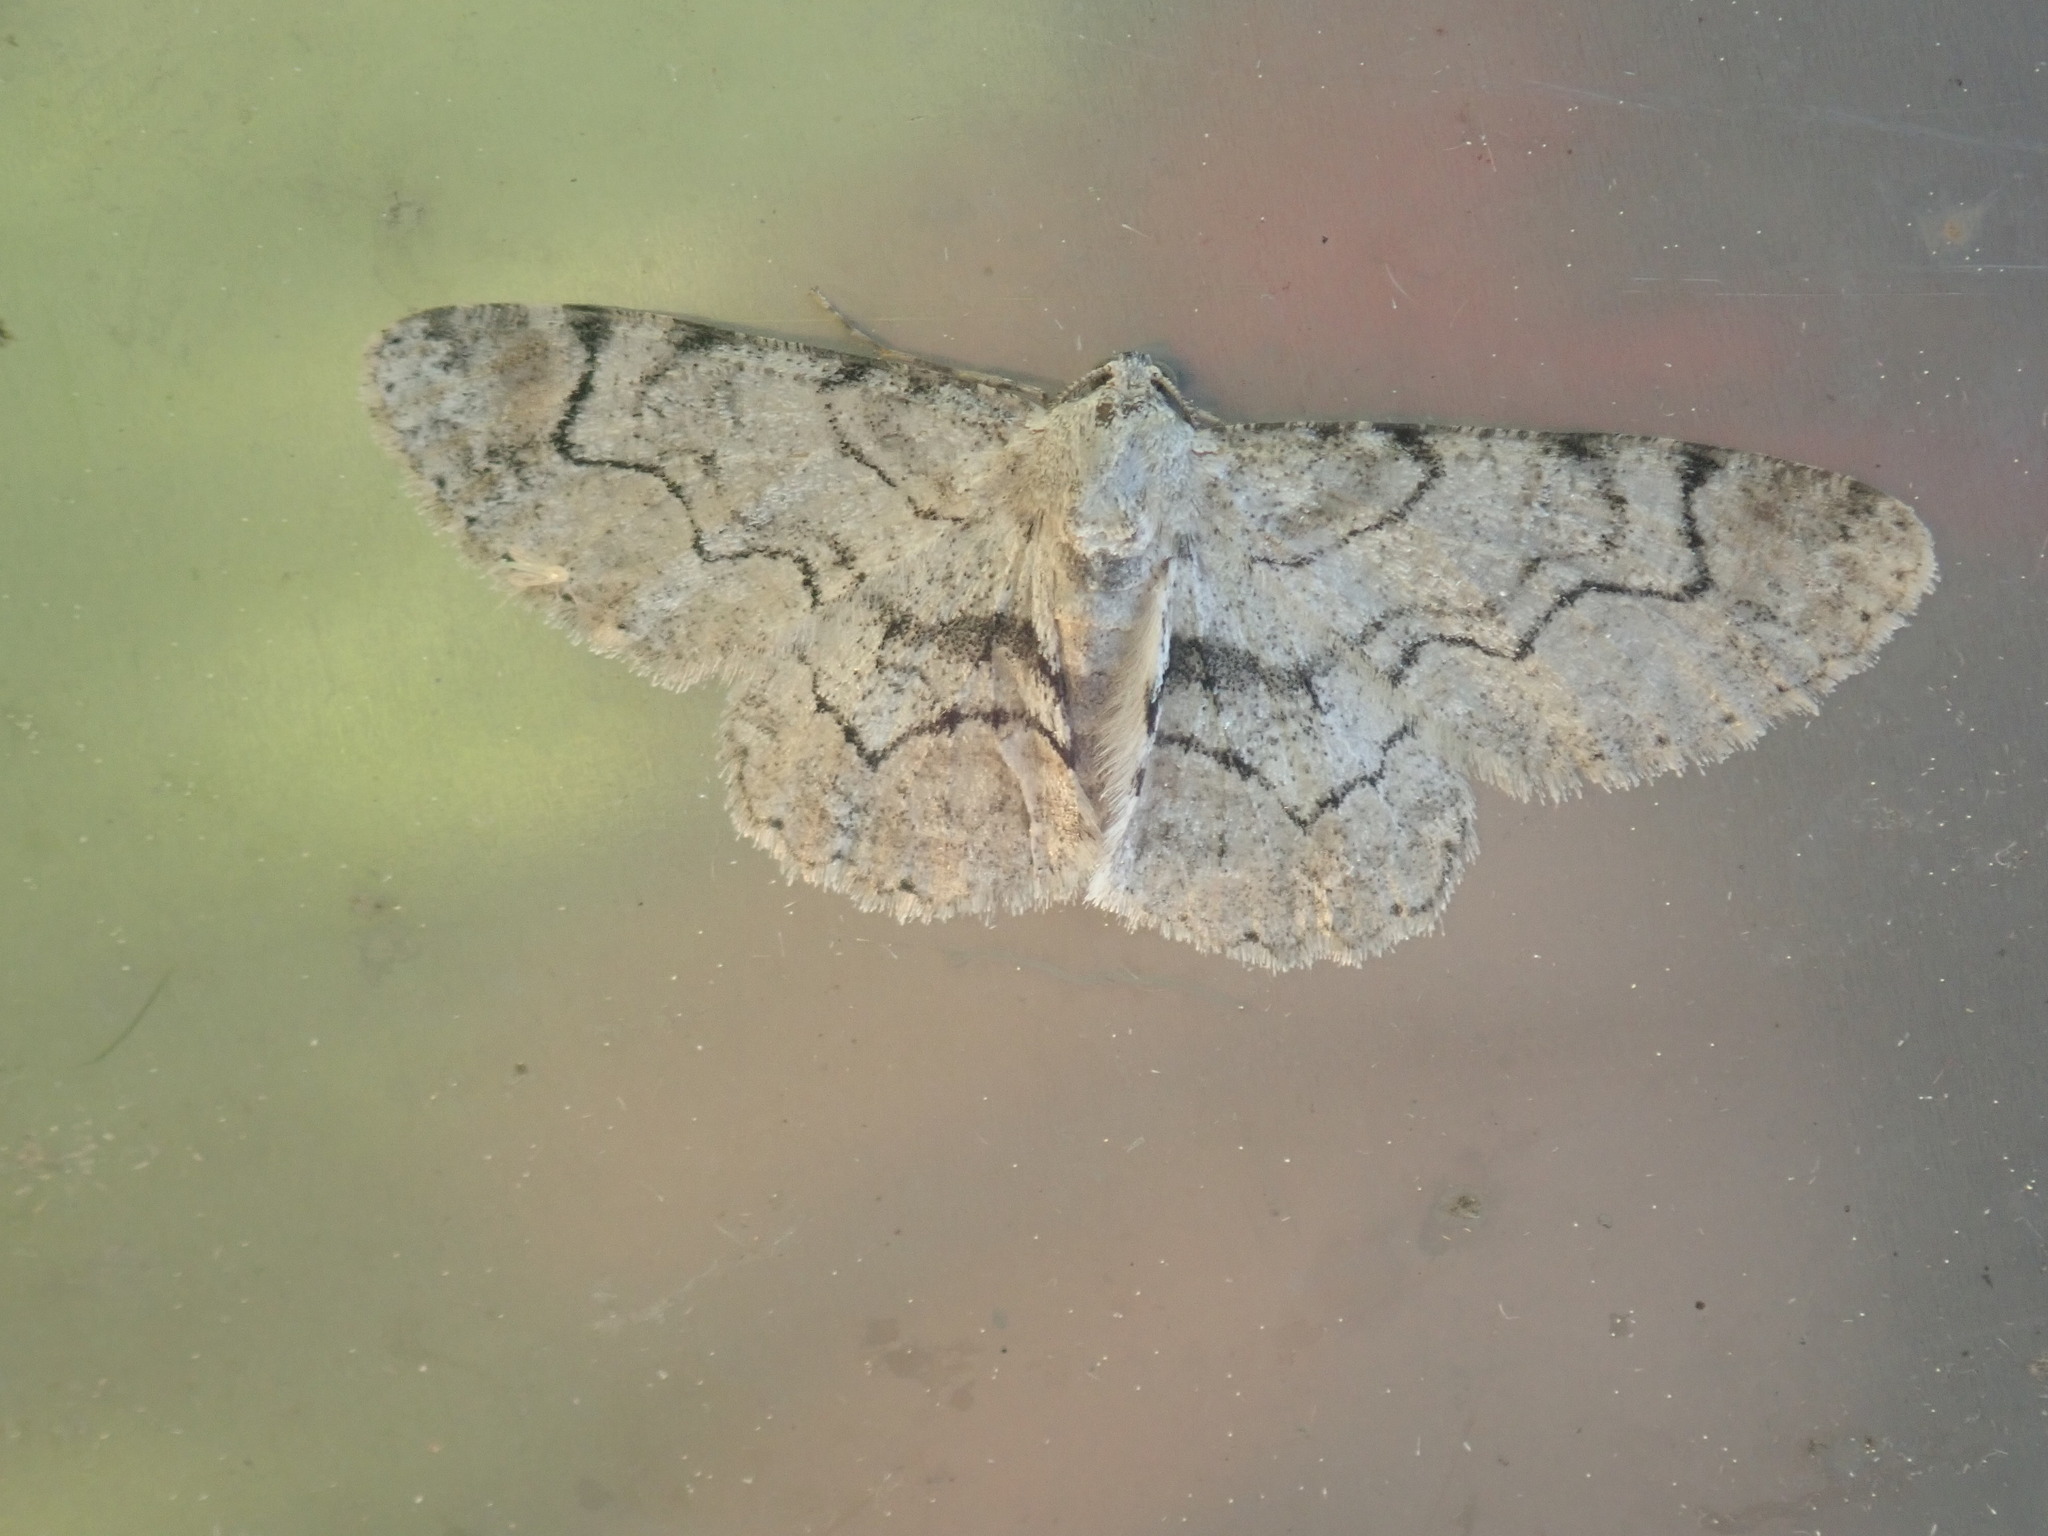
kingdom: Animalia
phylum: Arthropoda
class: Insecta
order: Lepidoptera
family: Geometridae
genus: Iridopsis
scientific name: Iridopsis larvaria
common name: Bent-line gray
